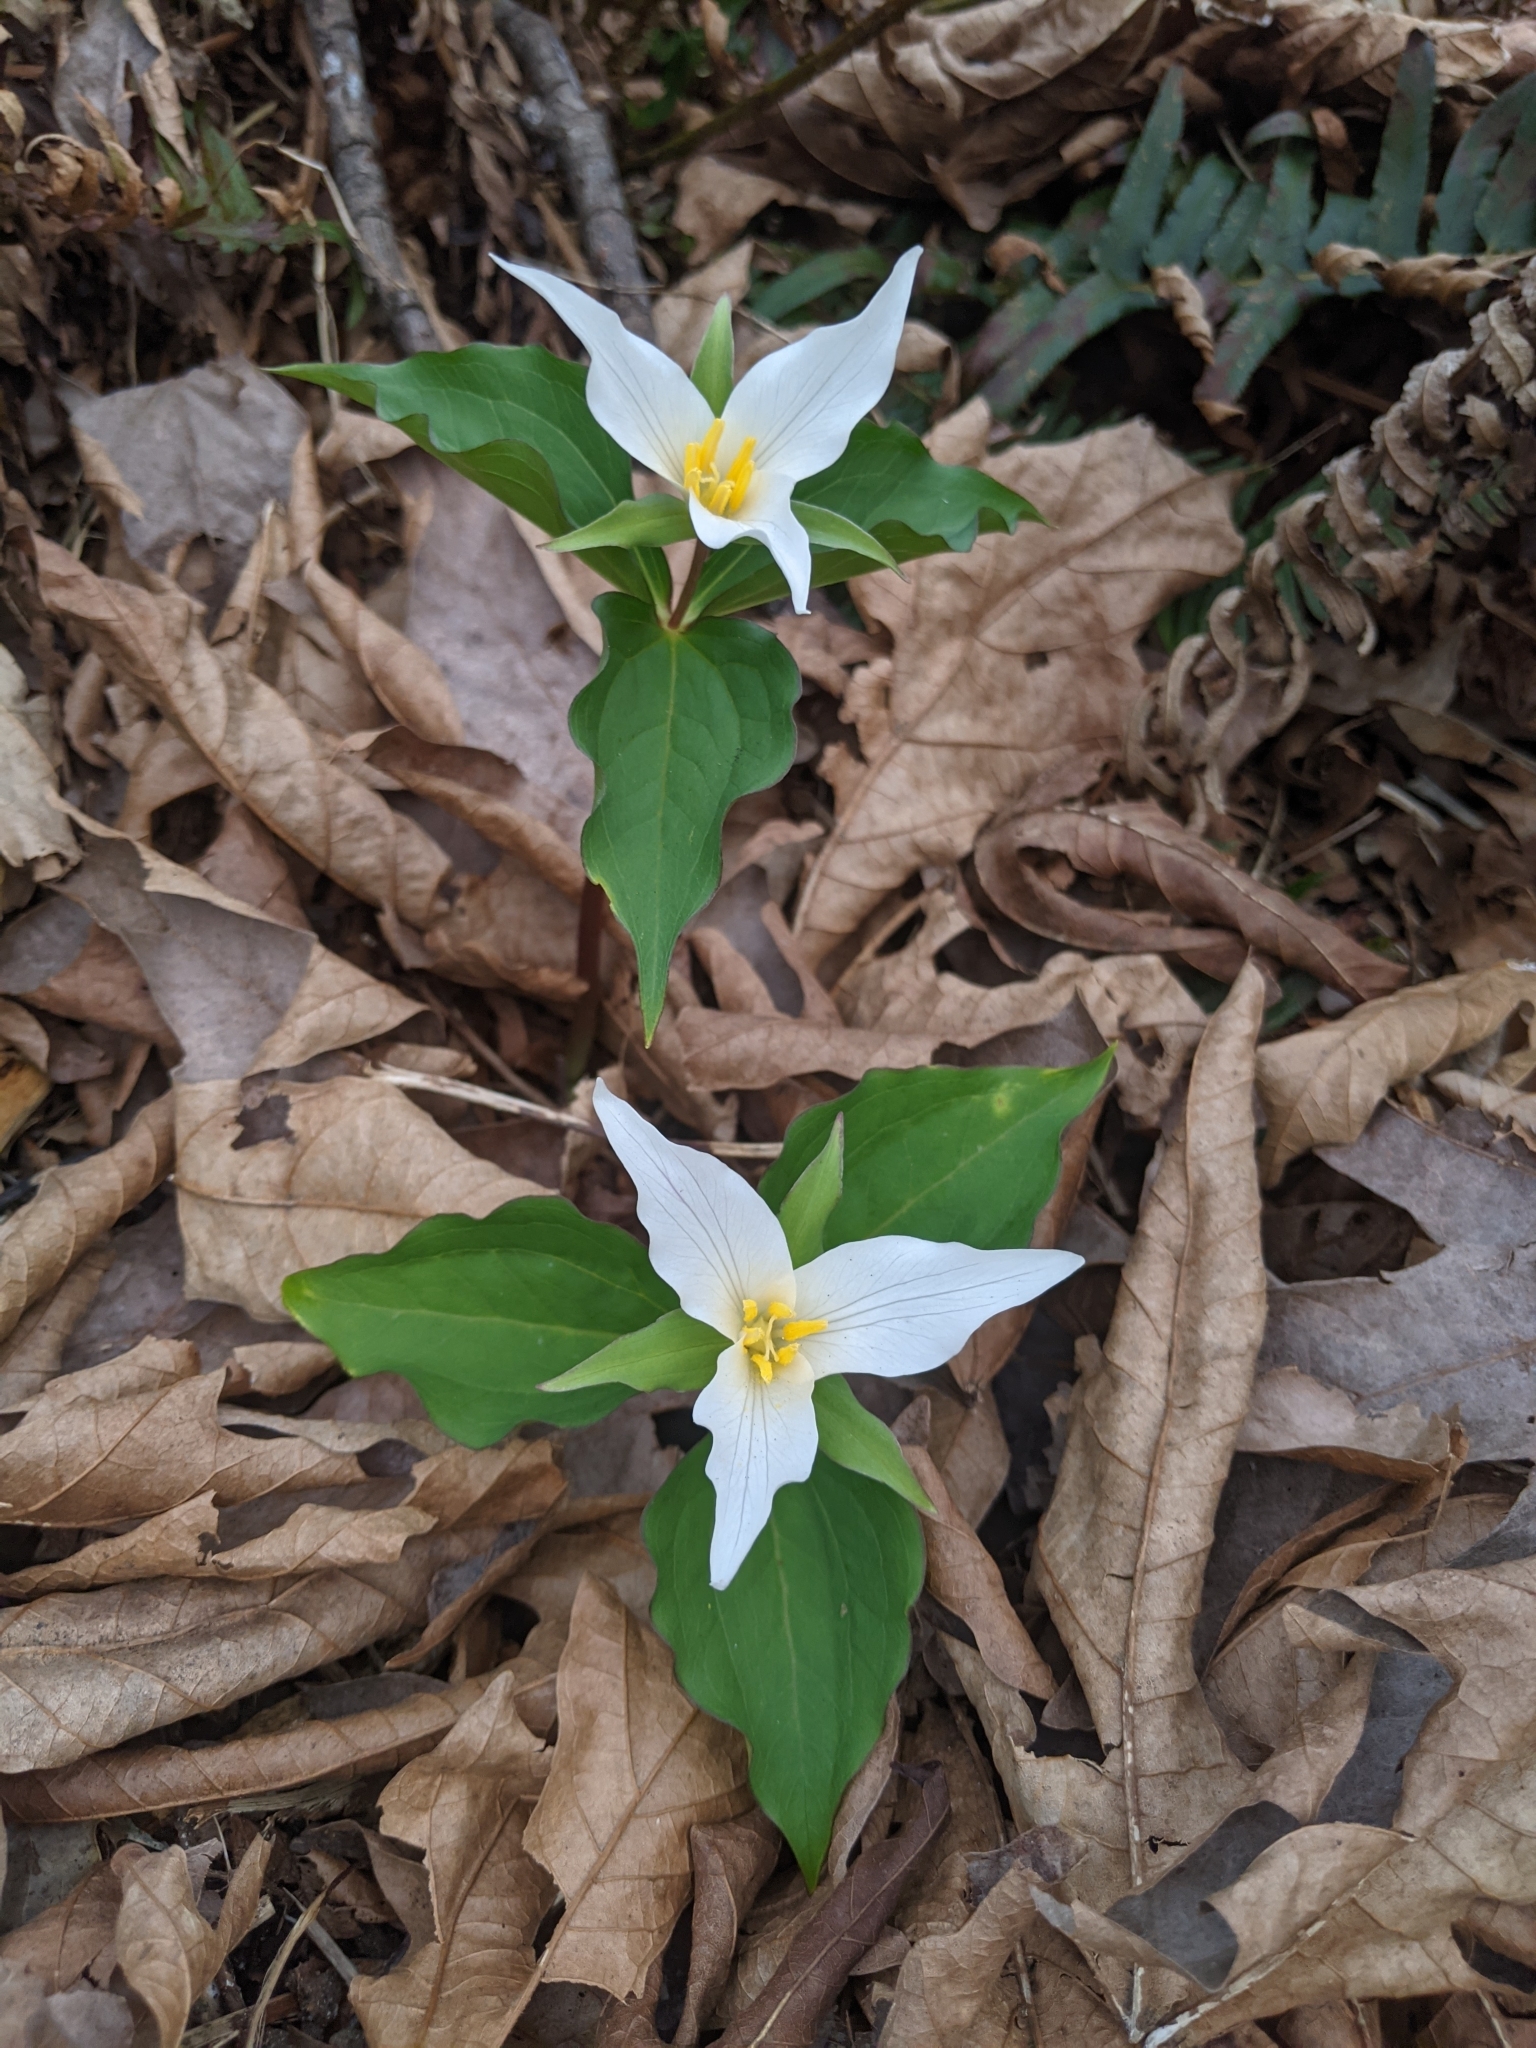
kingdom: Plantae
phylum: Tracheophyta
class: Liliopsida
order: Liliales
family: Melanthiaceae
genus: Trillium
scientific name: Trillium ovatum
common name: Pacific trillium
